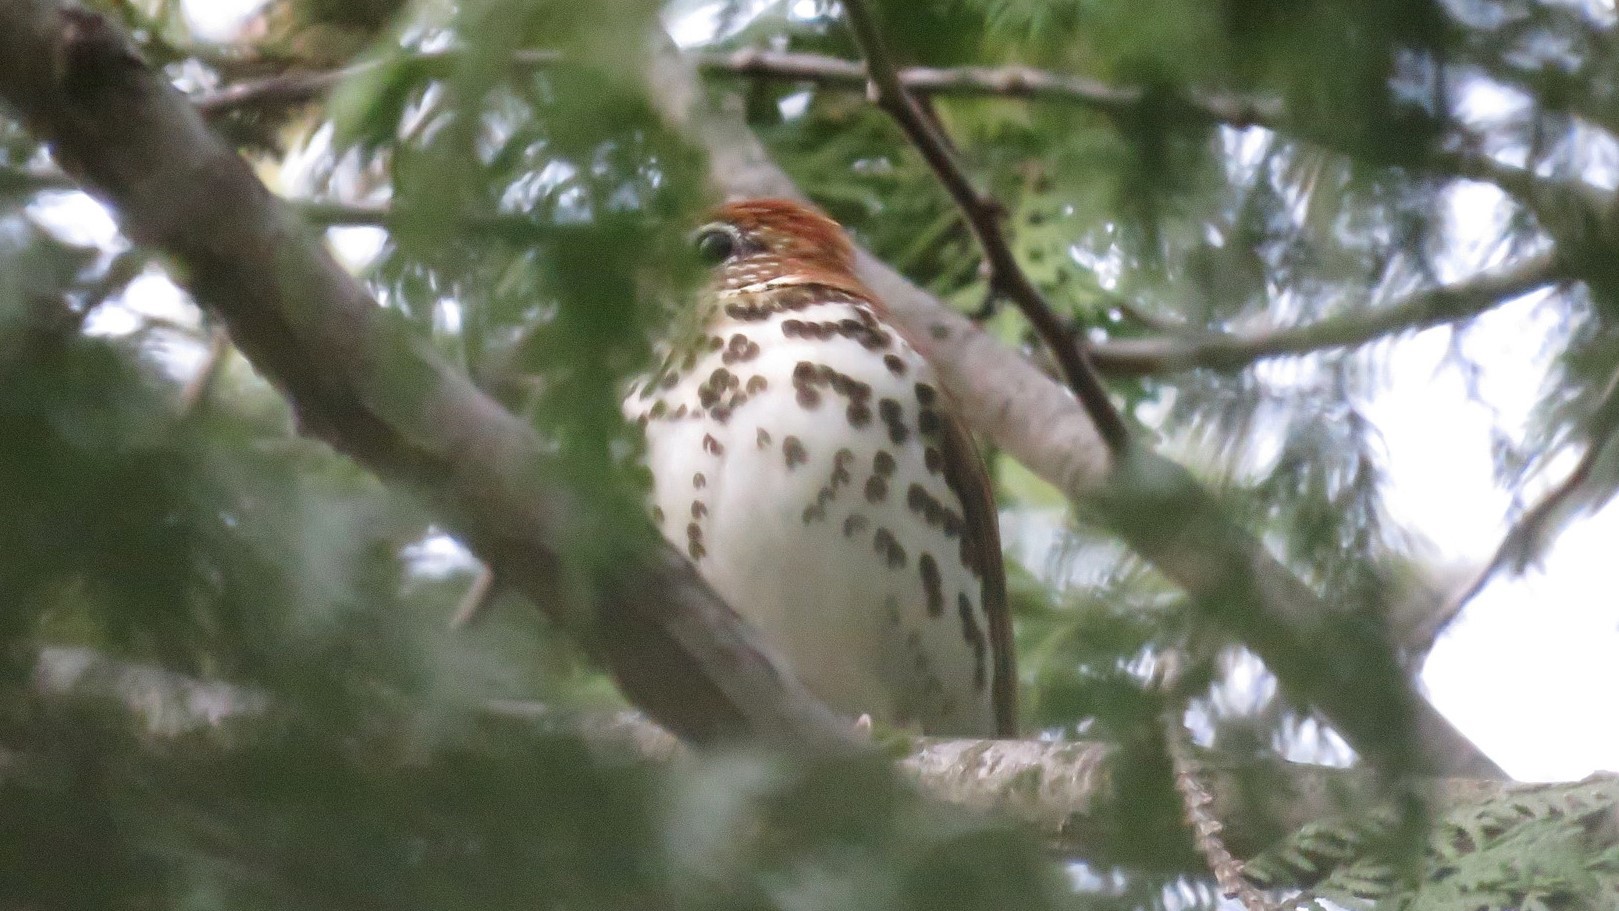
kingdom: Animalia
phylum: Chordata
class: Aves
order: Passeriformes
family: Turdidae
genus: Hylocichla
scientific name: Hylocichla mustelina
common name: Wood thrush
